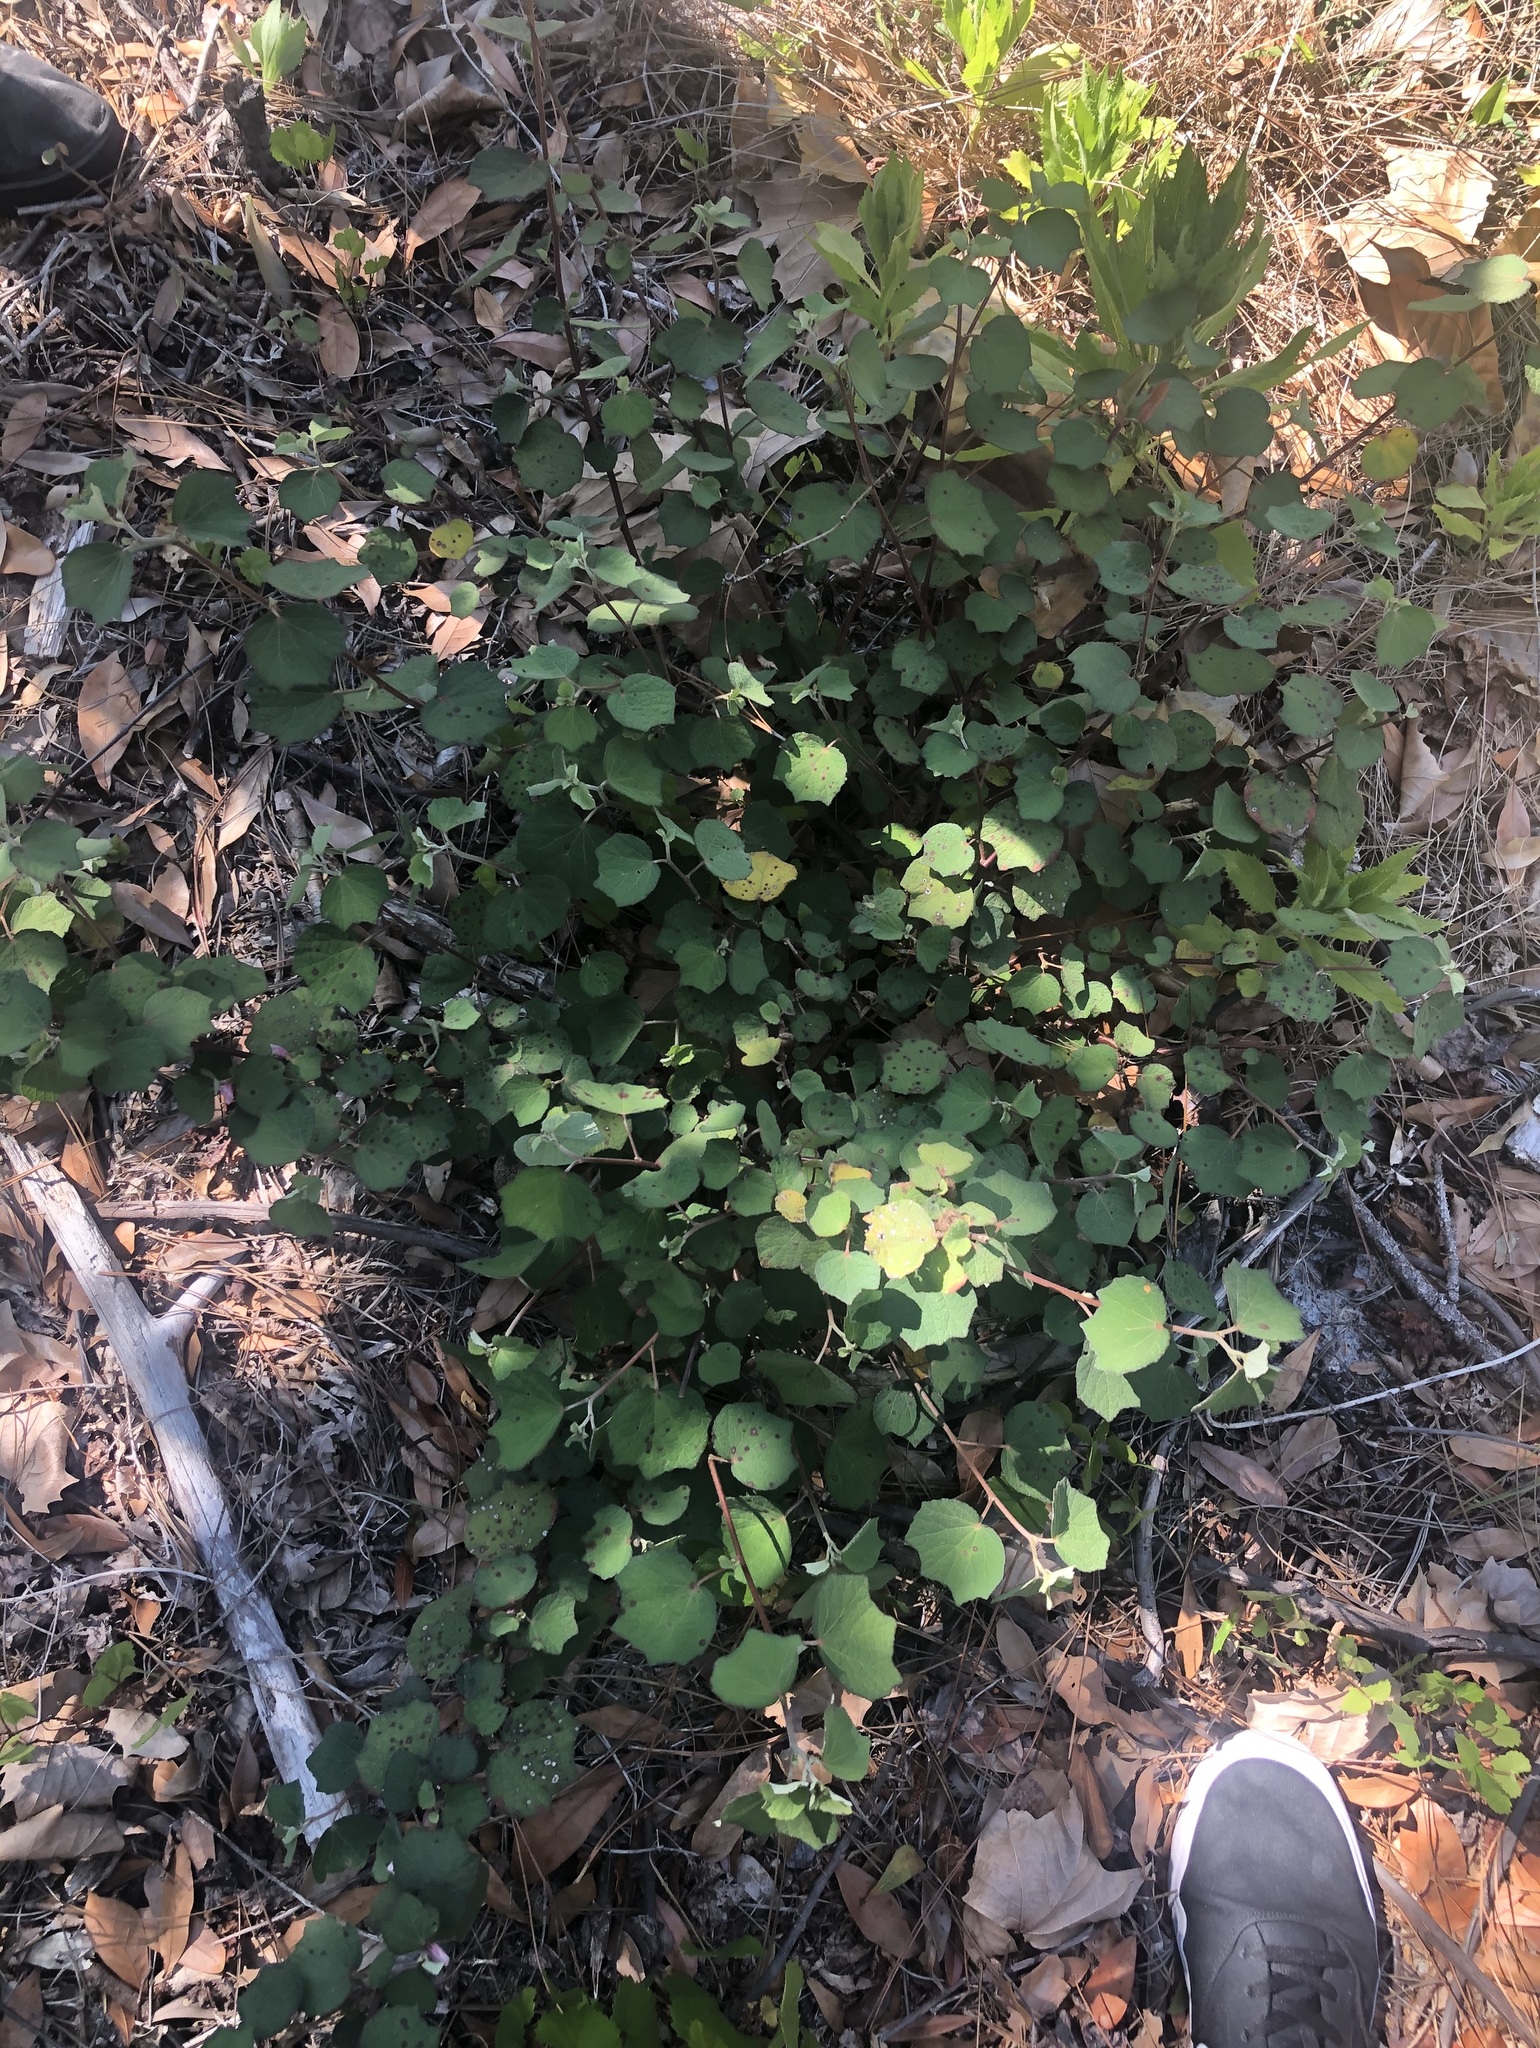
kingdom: Plantae
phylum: Tracheophyta
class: Magnoliopsida
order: Malvales
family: Malvaceae
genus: Urena
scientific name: Urena lobata
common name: Caesarweed
